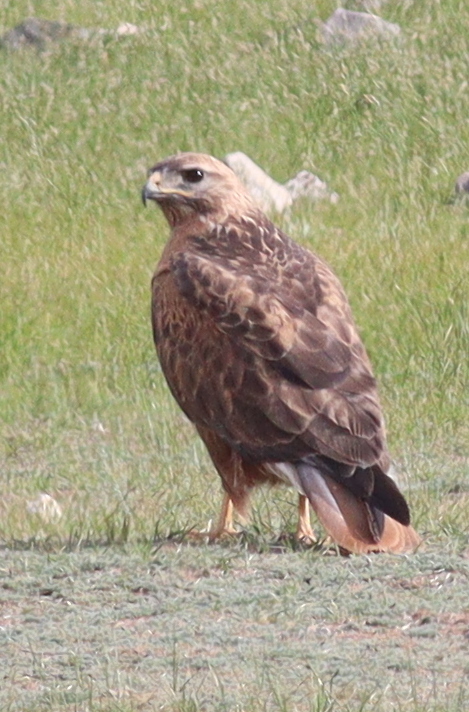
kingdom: Animalia
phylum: Chordata
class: Aves
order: Accipitriformes
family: Accipitridae
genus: Buteo
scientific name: Buteo rufinus
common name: Long-legged buzzard
